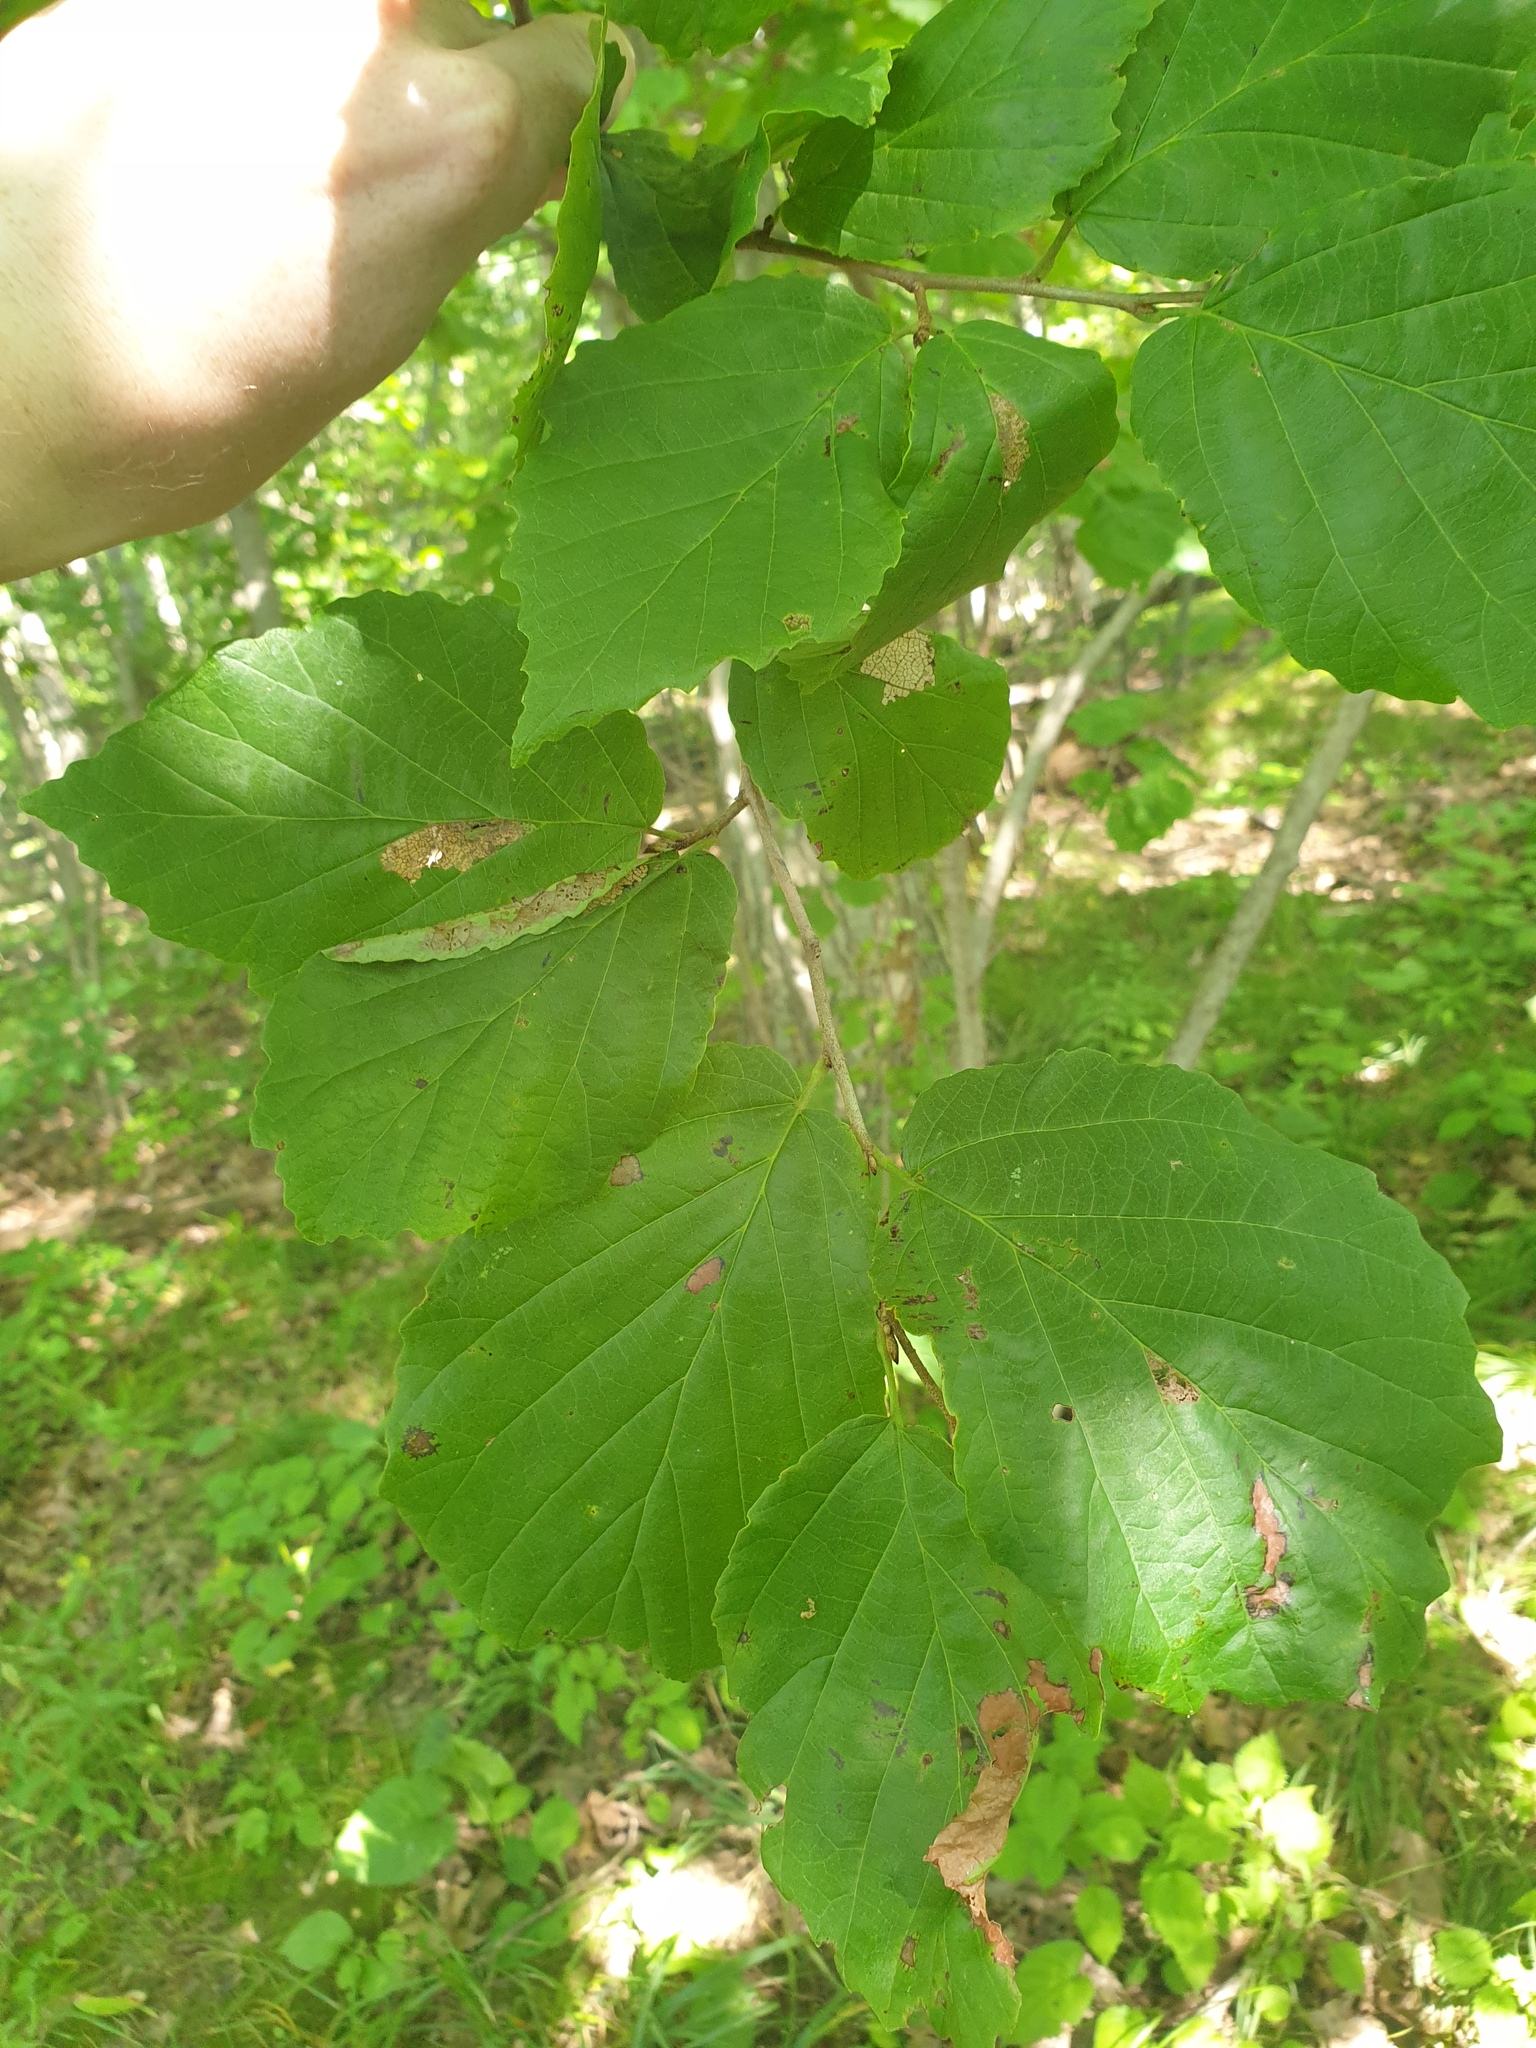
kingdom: Plantae
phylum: Tracheophyta
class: Magnoliopsida
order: Saxifragales
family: Hamamelidaceae
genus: Hamamelis
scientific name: Hamamelis virginiana
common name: Witch-hazel
